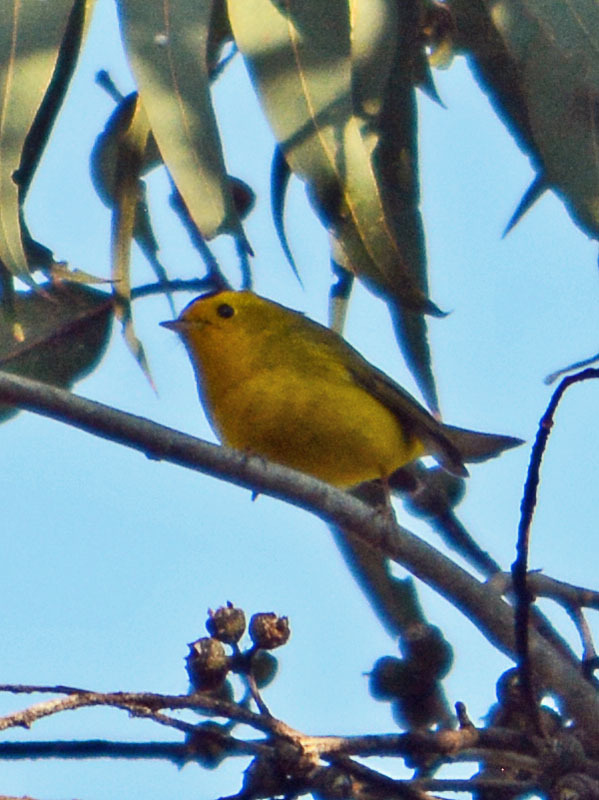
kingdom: Animalia
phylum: Chordata
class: Aves
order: Passeriformes
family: Parulidae
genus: Cardellina
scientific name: Cardellina pusilla
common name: Wilson's warbler
